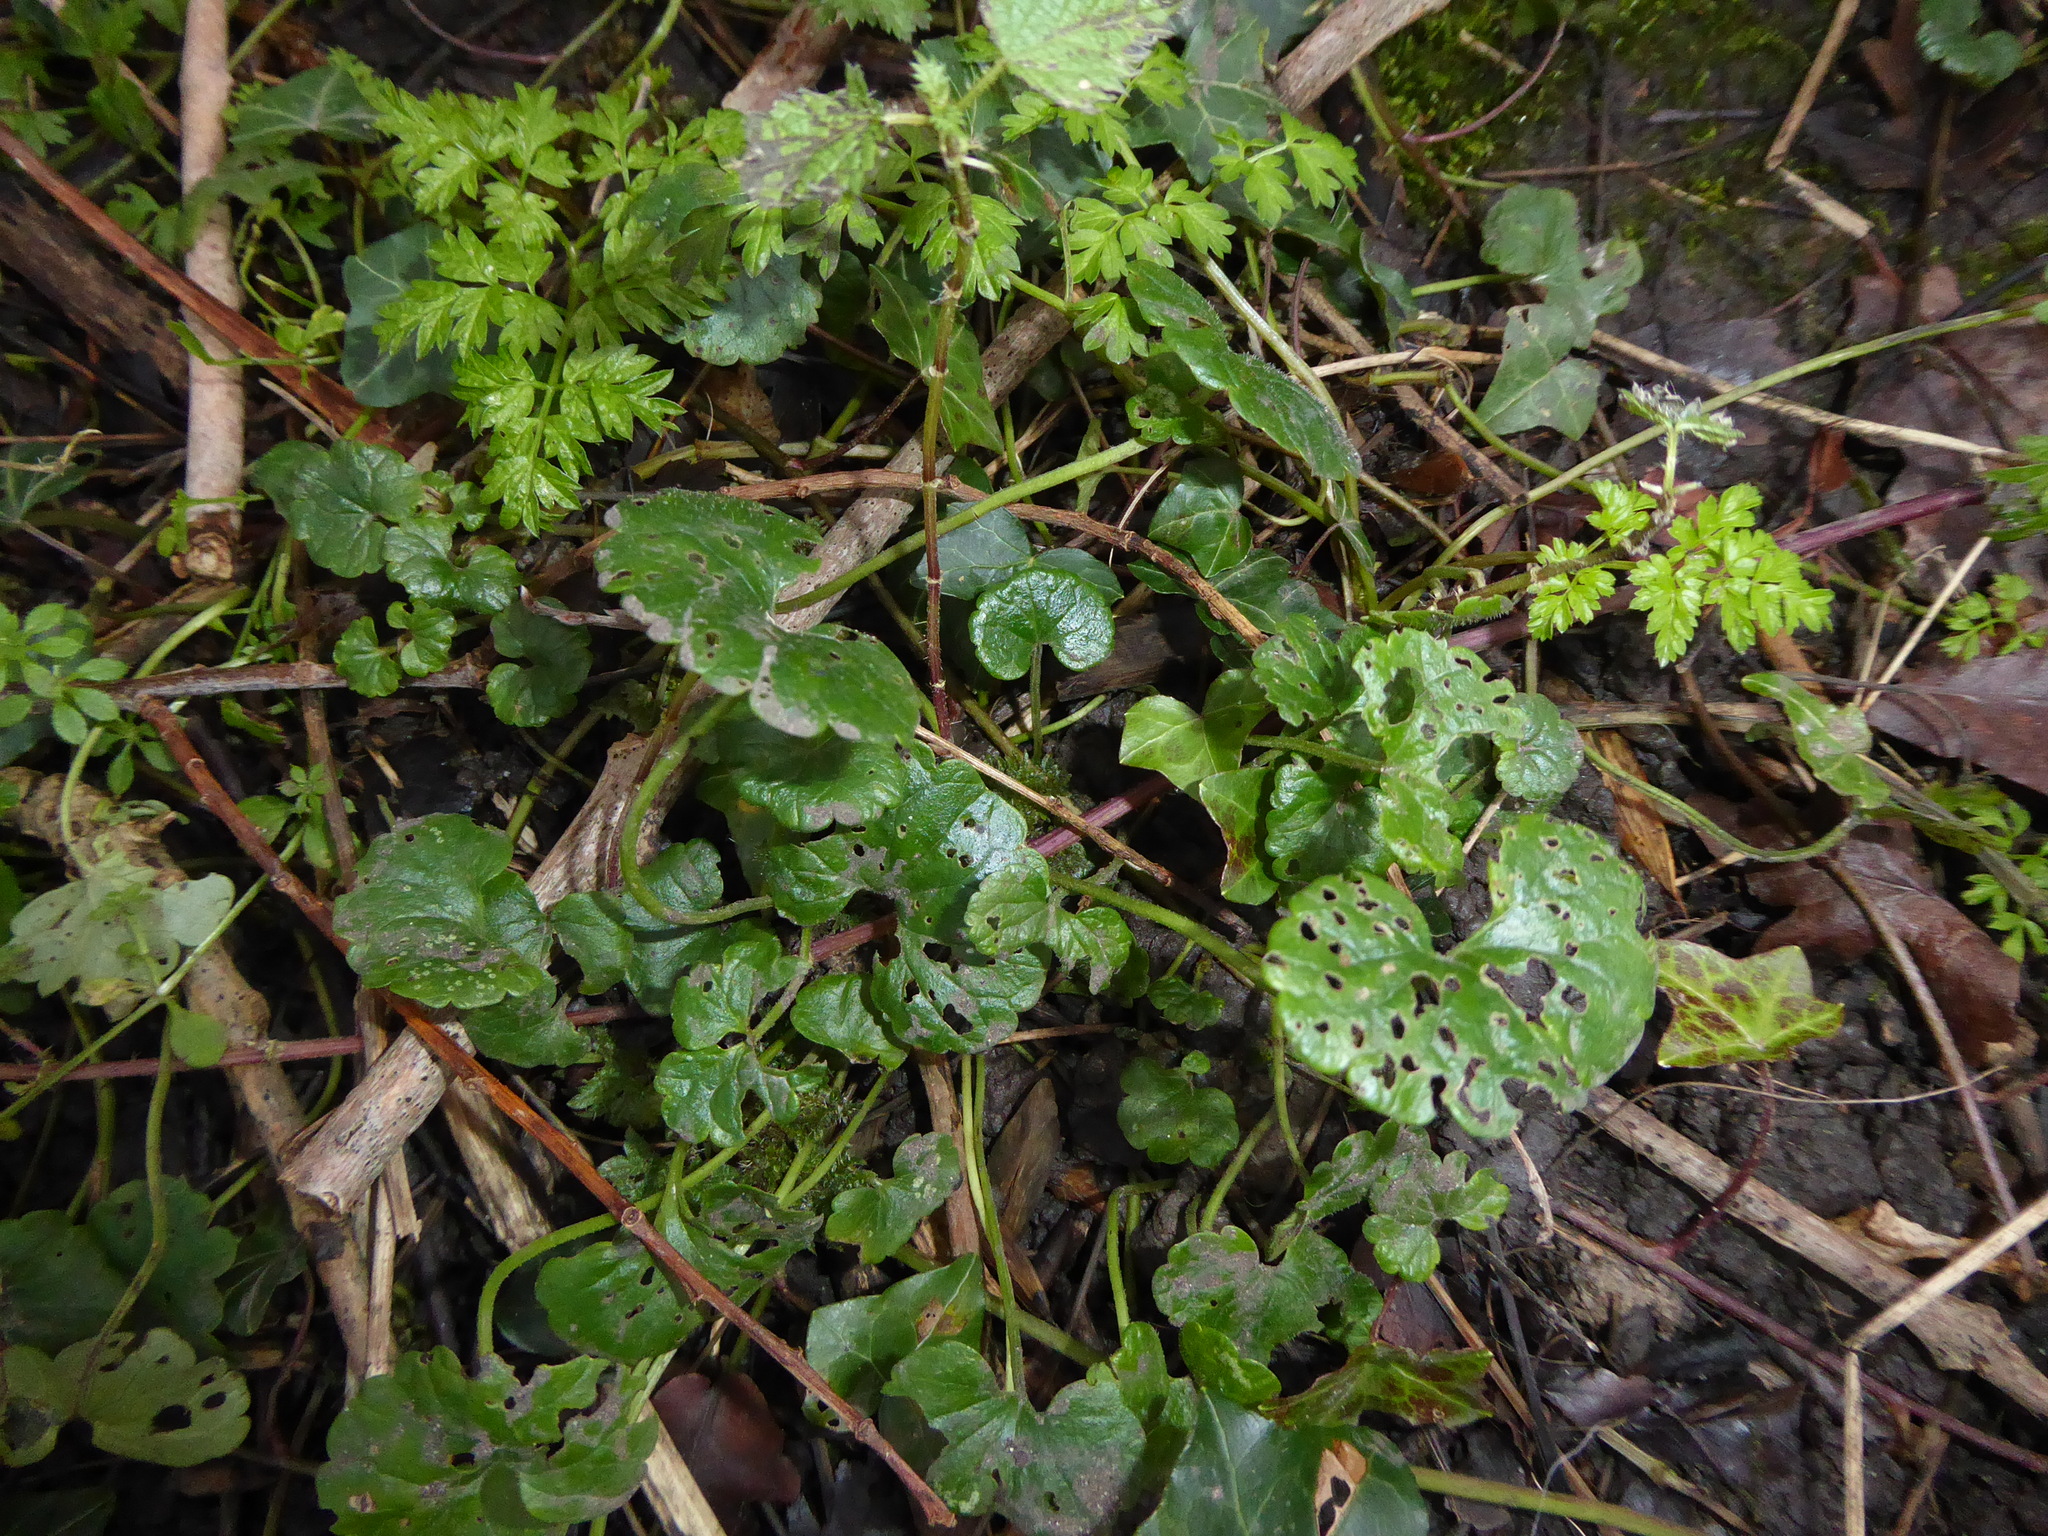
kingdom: Plantae
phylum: Tracheophyta
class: Magnoliopsida
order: Lamiales
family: Lamiaceae
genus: Glechoma
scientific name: Glechoma hederacea
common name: Ground ivy
